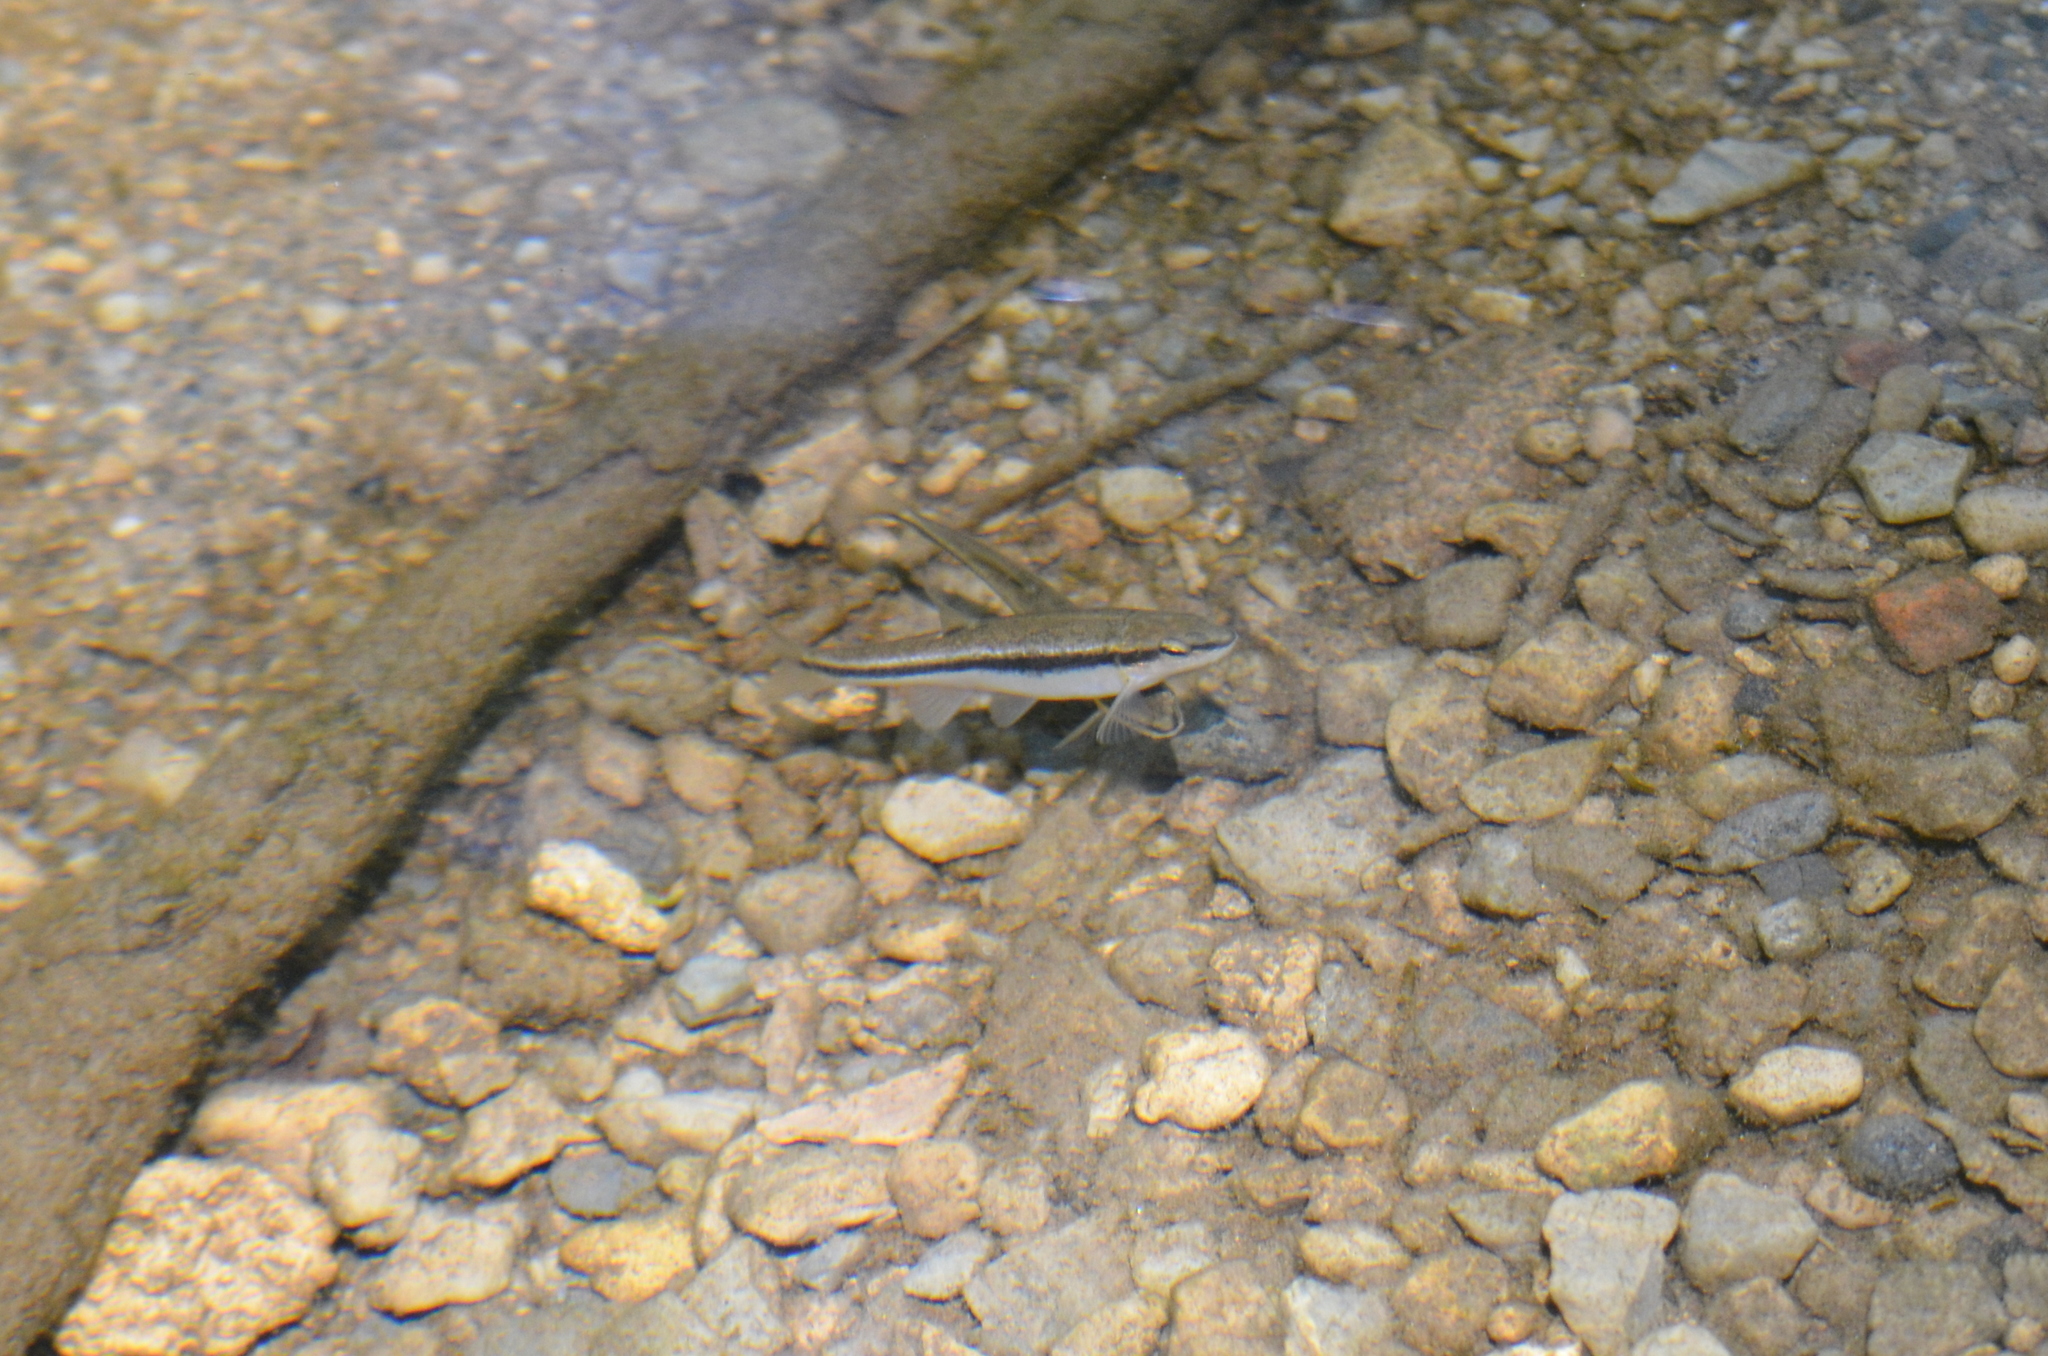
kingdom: Animalia
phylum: Chordata
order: Cypriniformes
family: Cyprinidae
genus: Rhinichthys
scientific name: Rhinichthys atratulus
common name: Eastern blacknose dace
